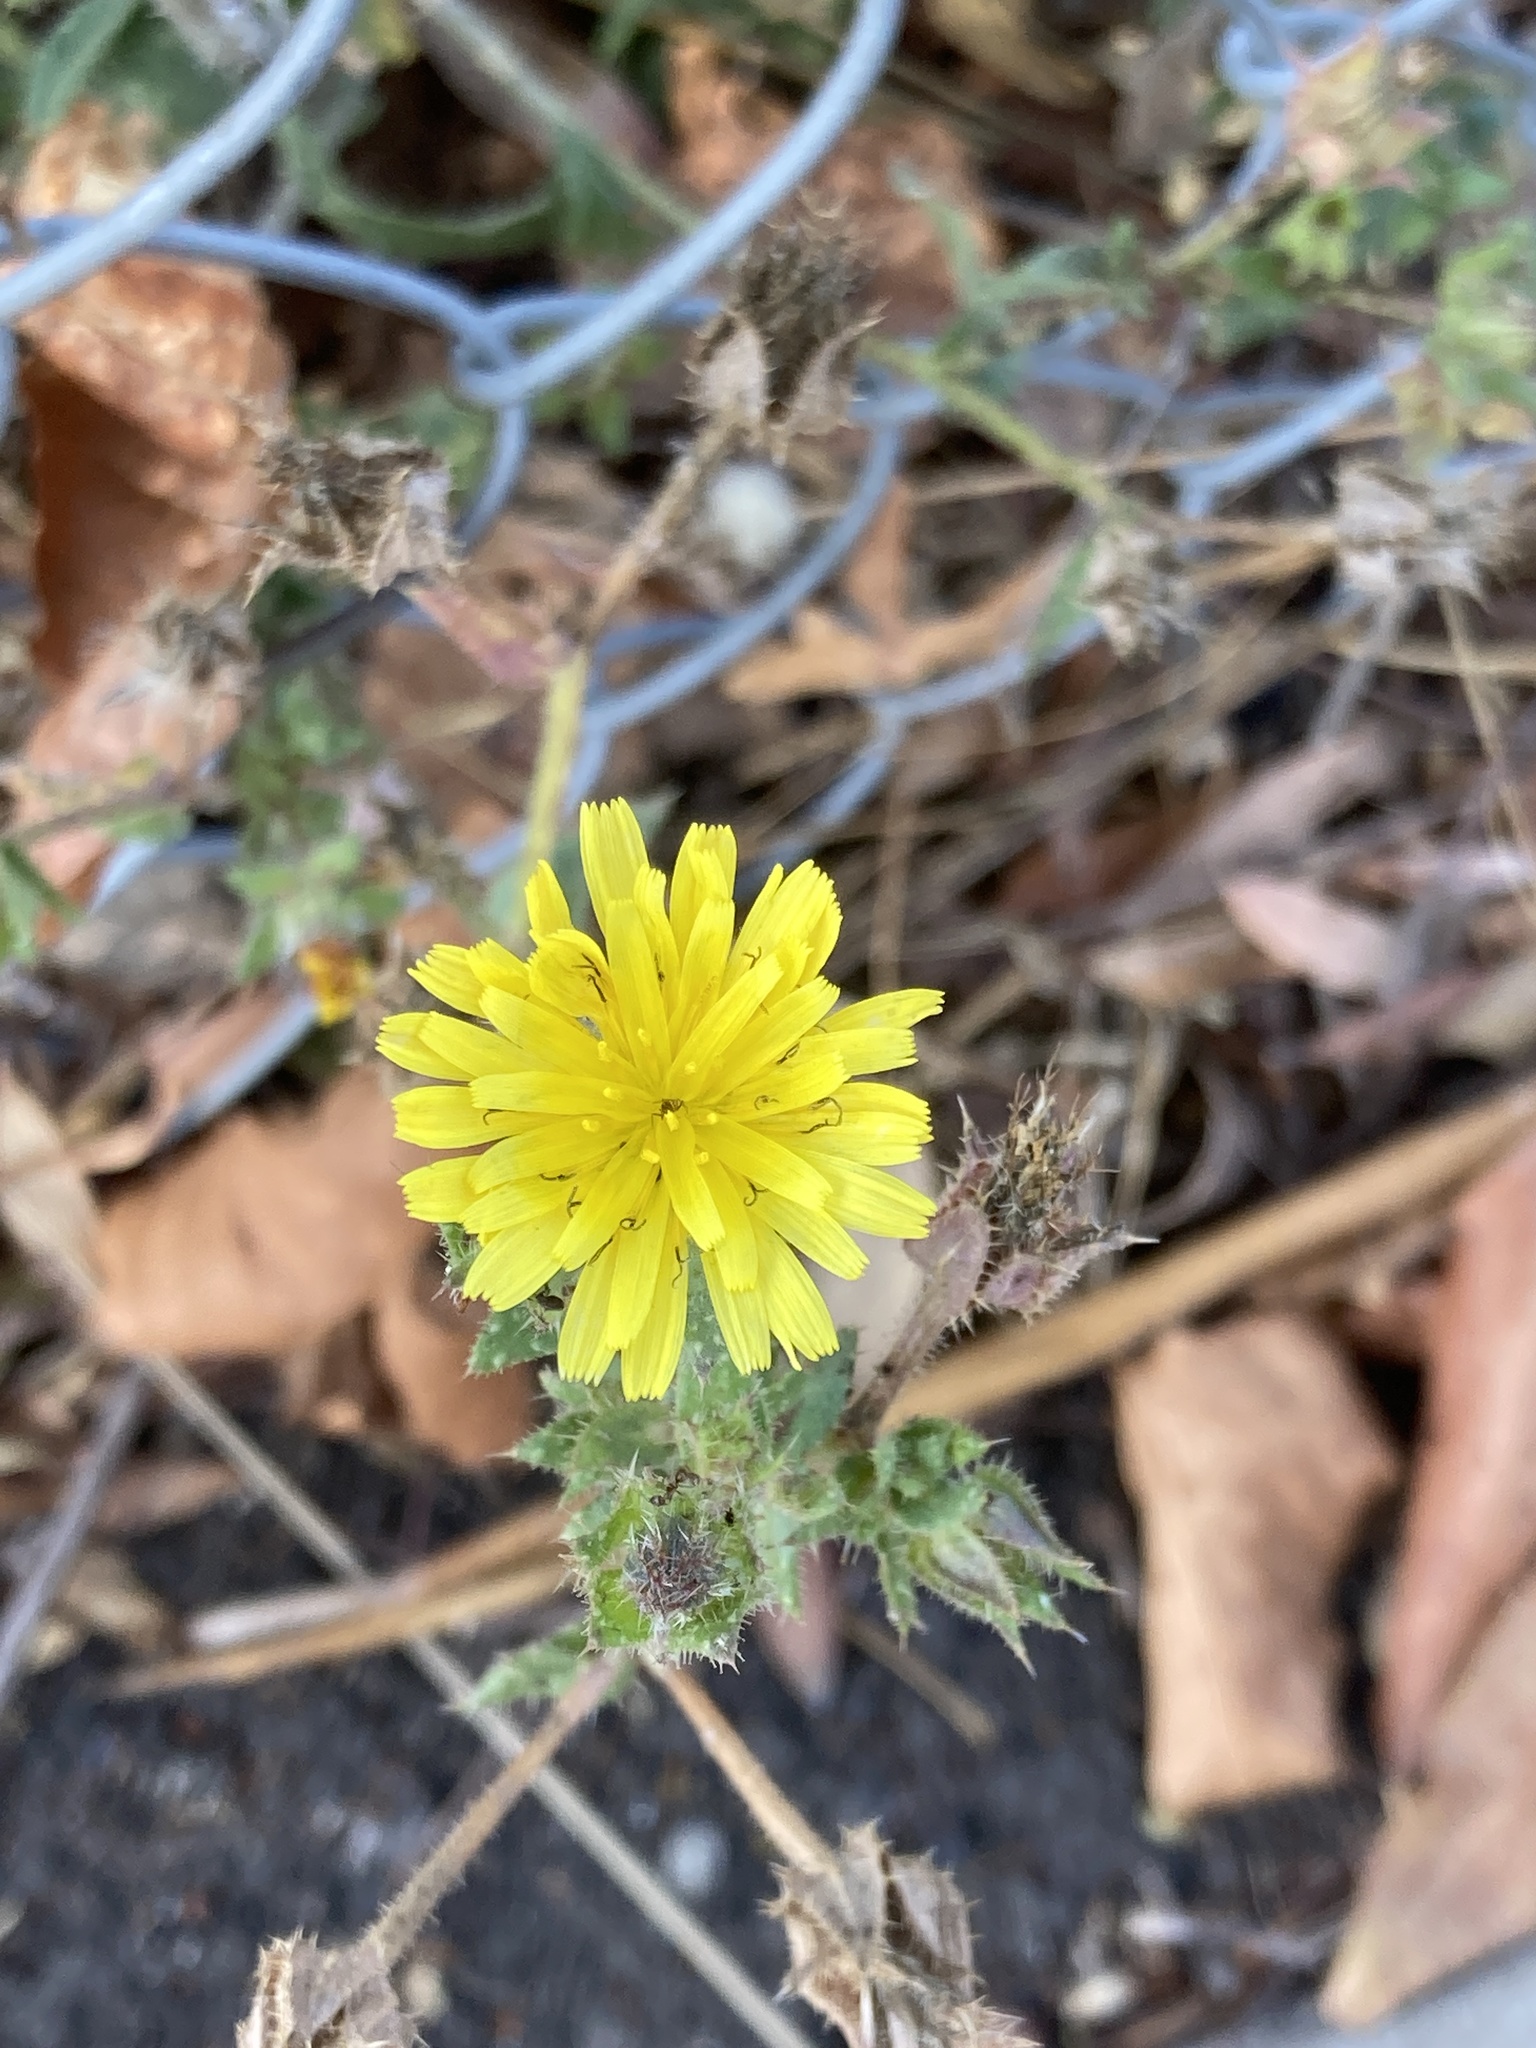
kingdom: Plantae
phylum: Tracheophyta
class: Magnoliopsida
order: Asterales
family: Asteraceae
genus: Helminthotheca
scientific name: Helminthotheca echioides
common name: Ox-tongue
